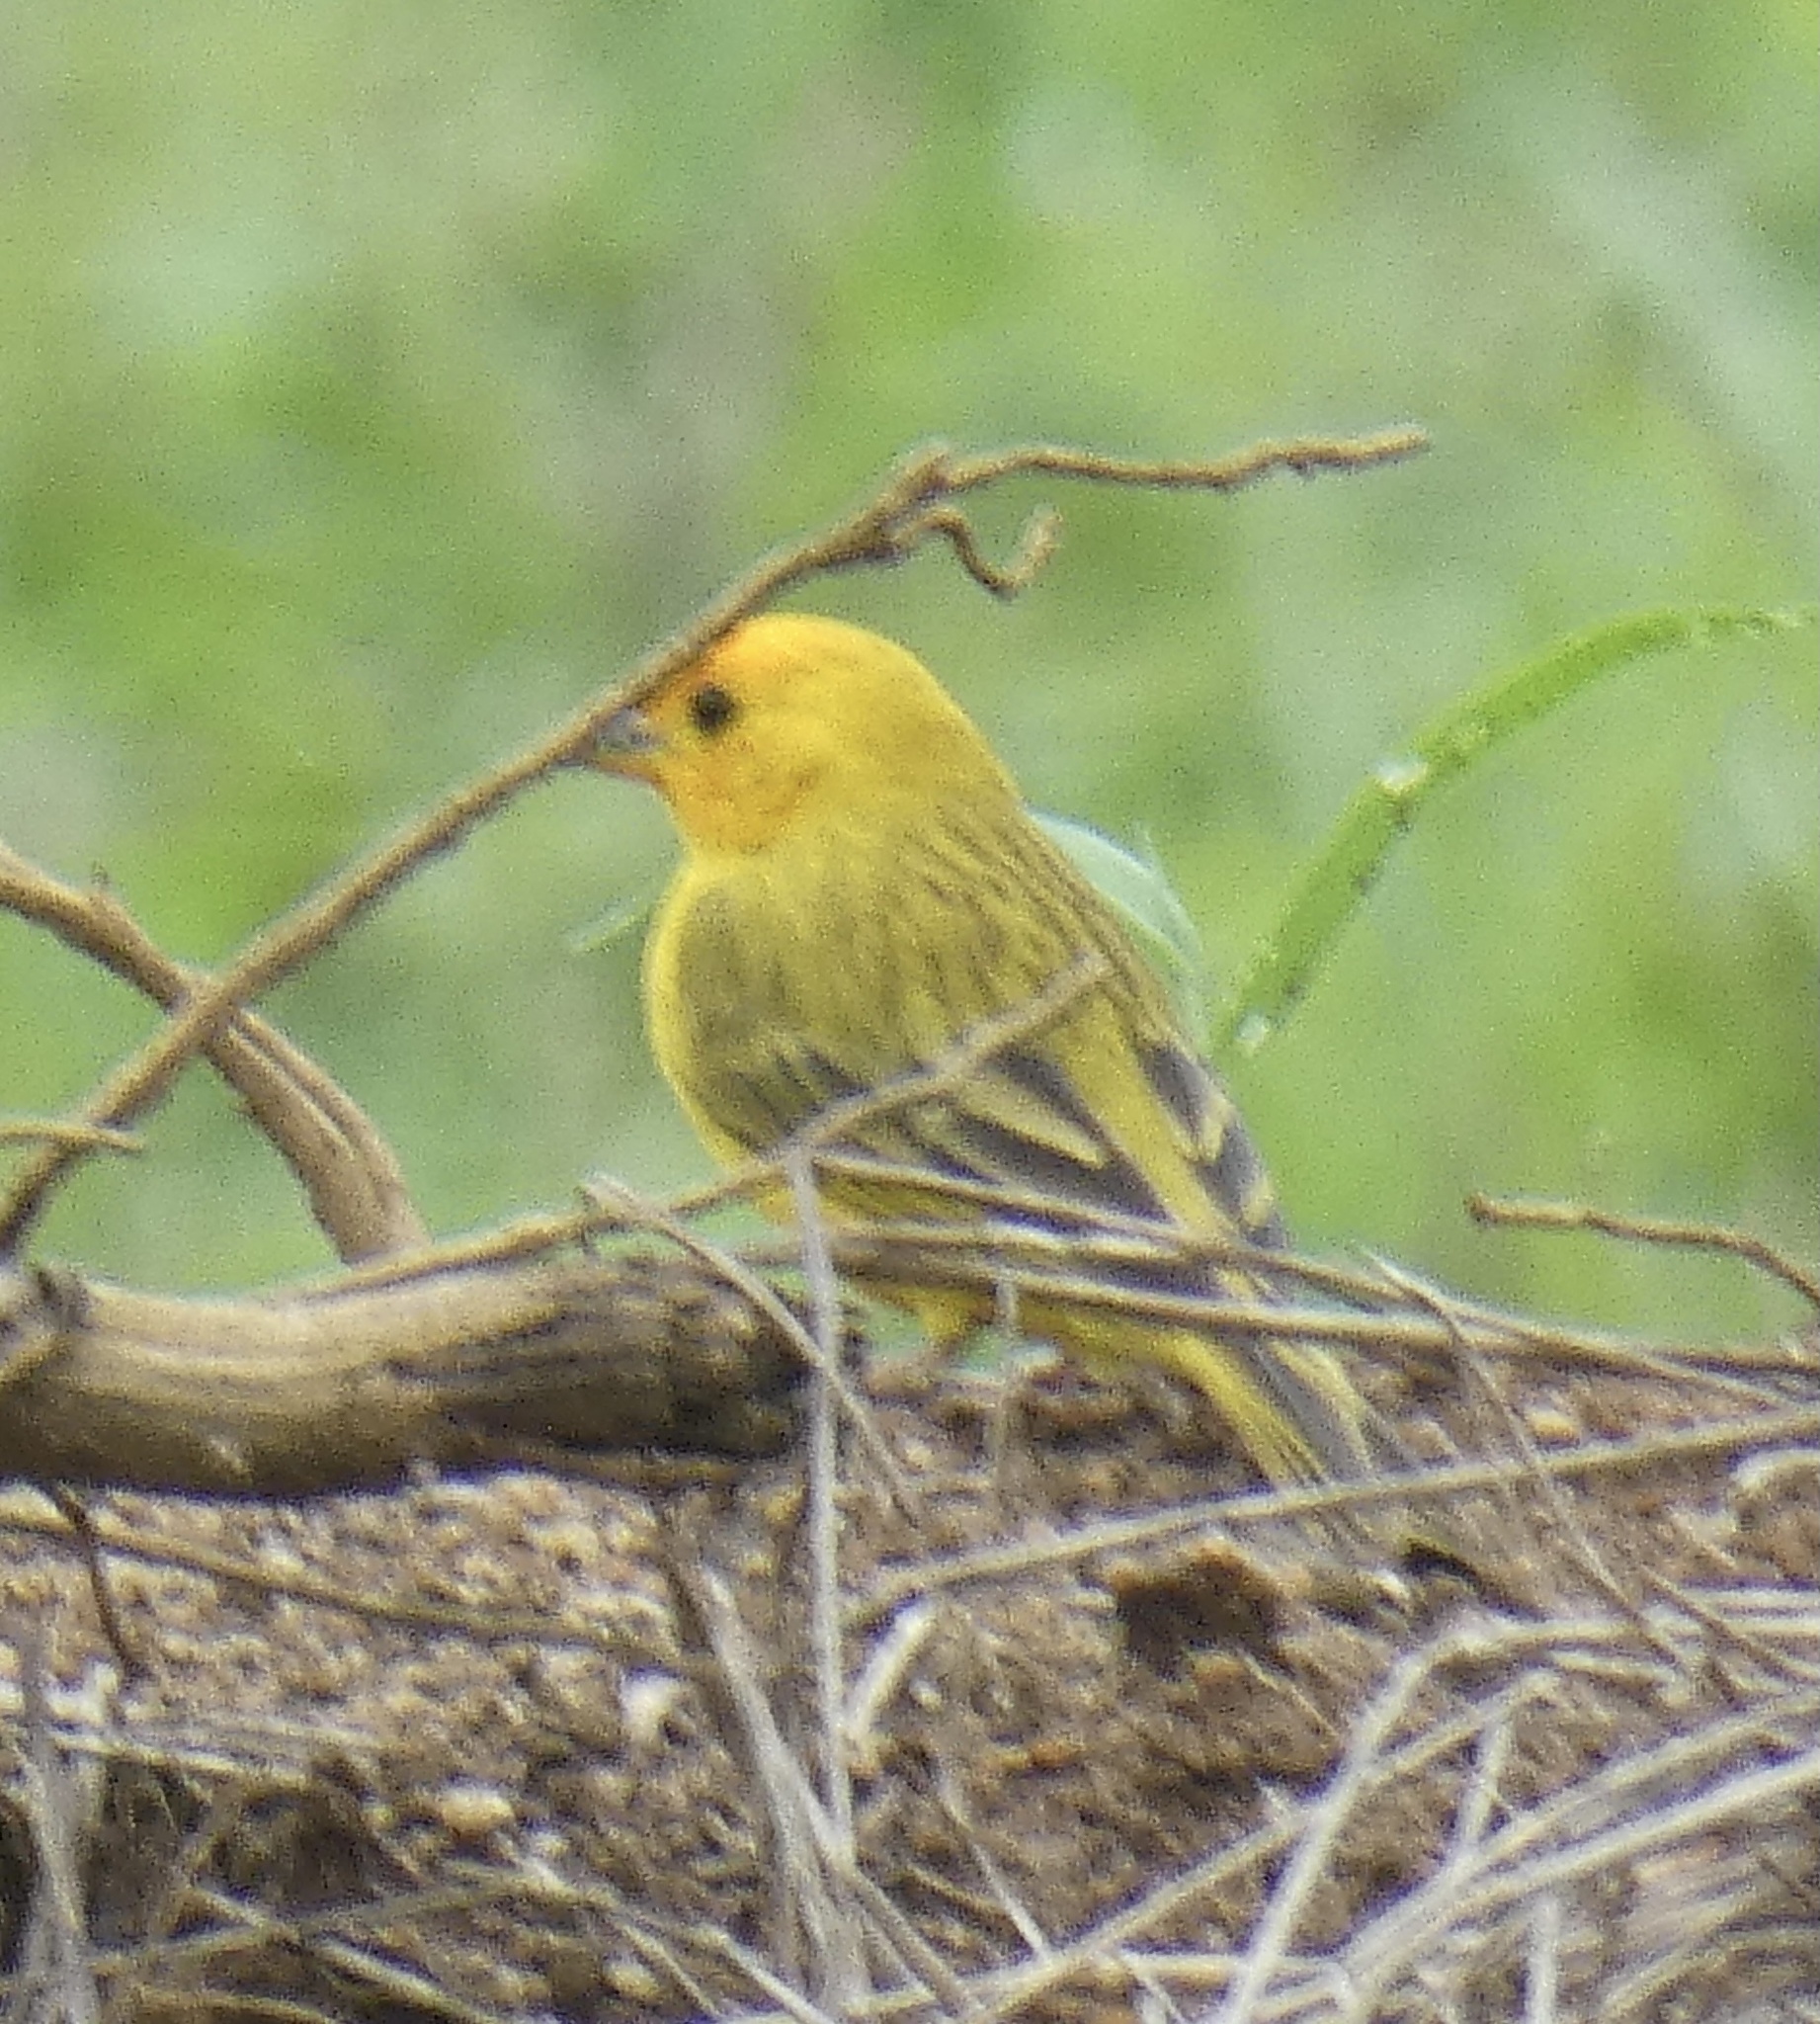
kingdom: Animalia
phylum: Chordata
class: Aves
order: Passeriformes
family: Thraupidae
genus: Sicalis
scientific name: Sicalis flaveola
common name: Saffron finch
